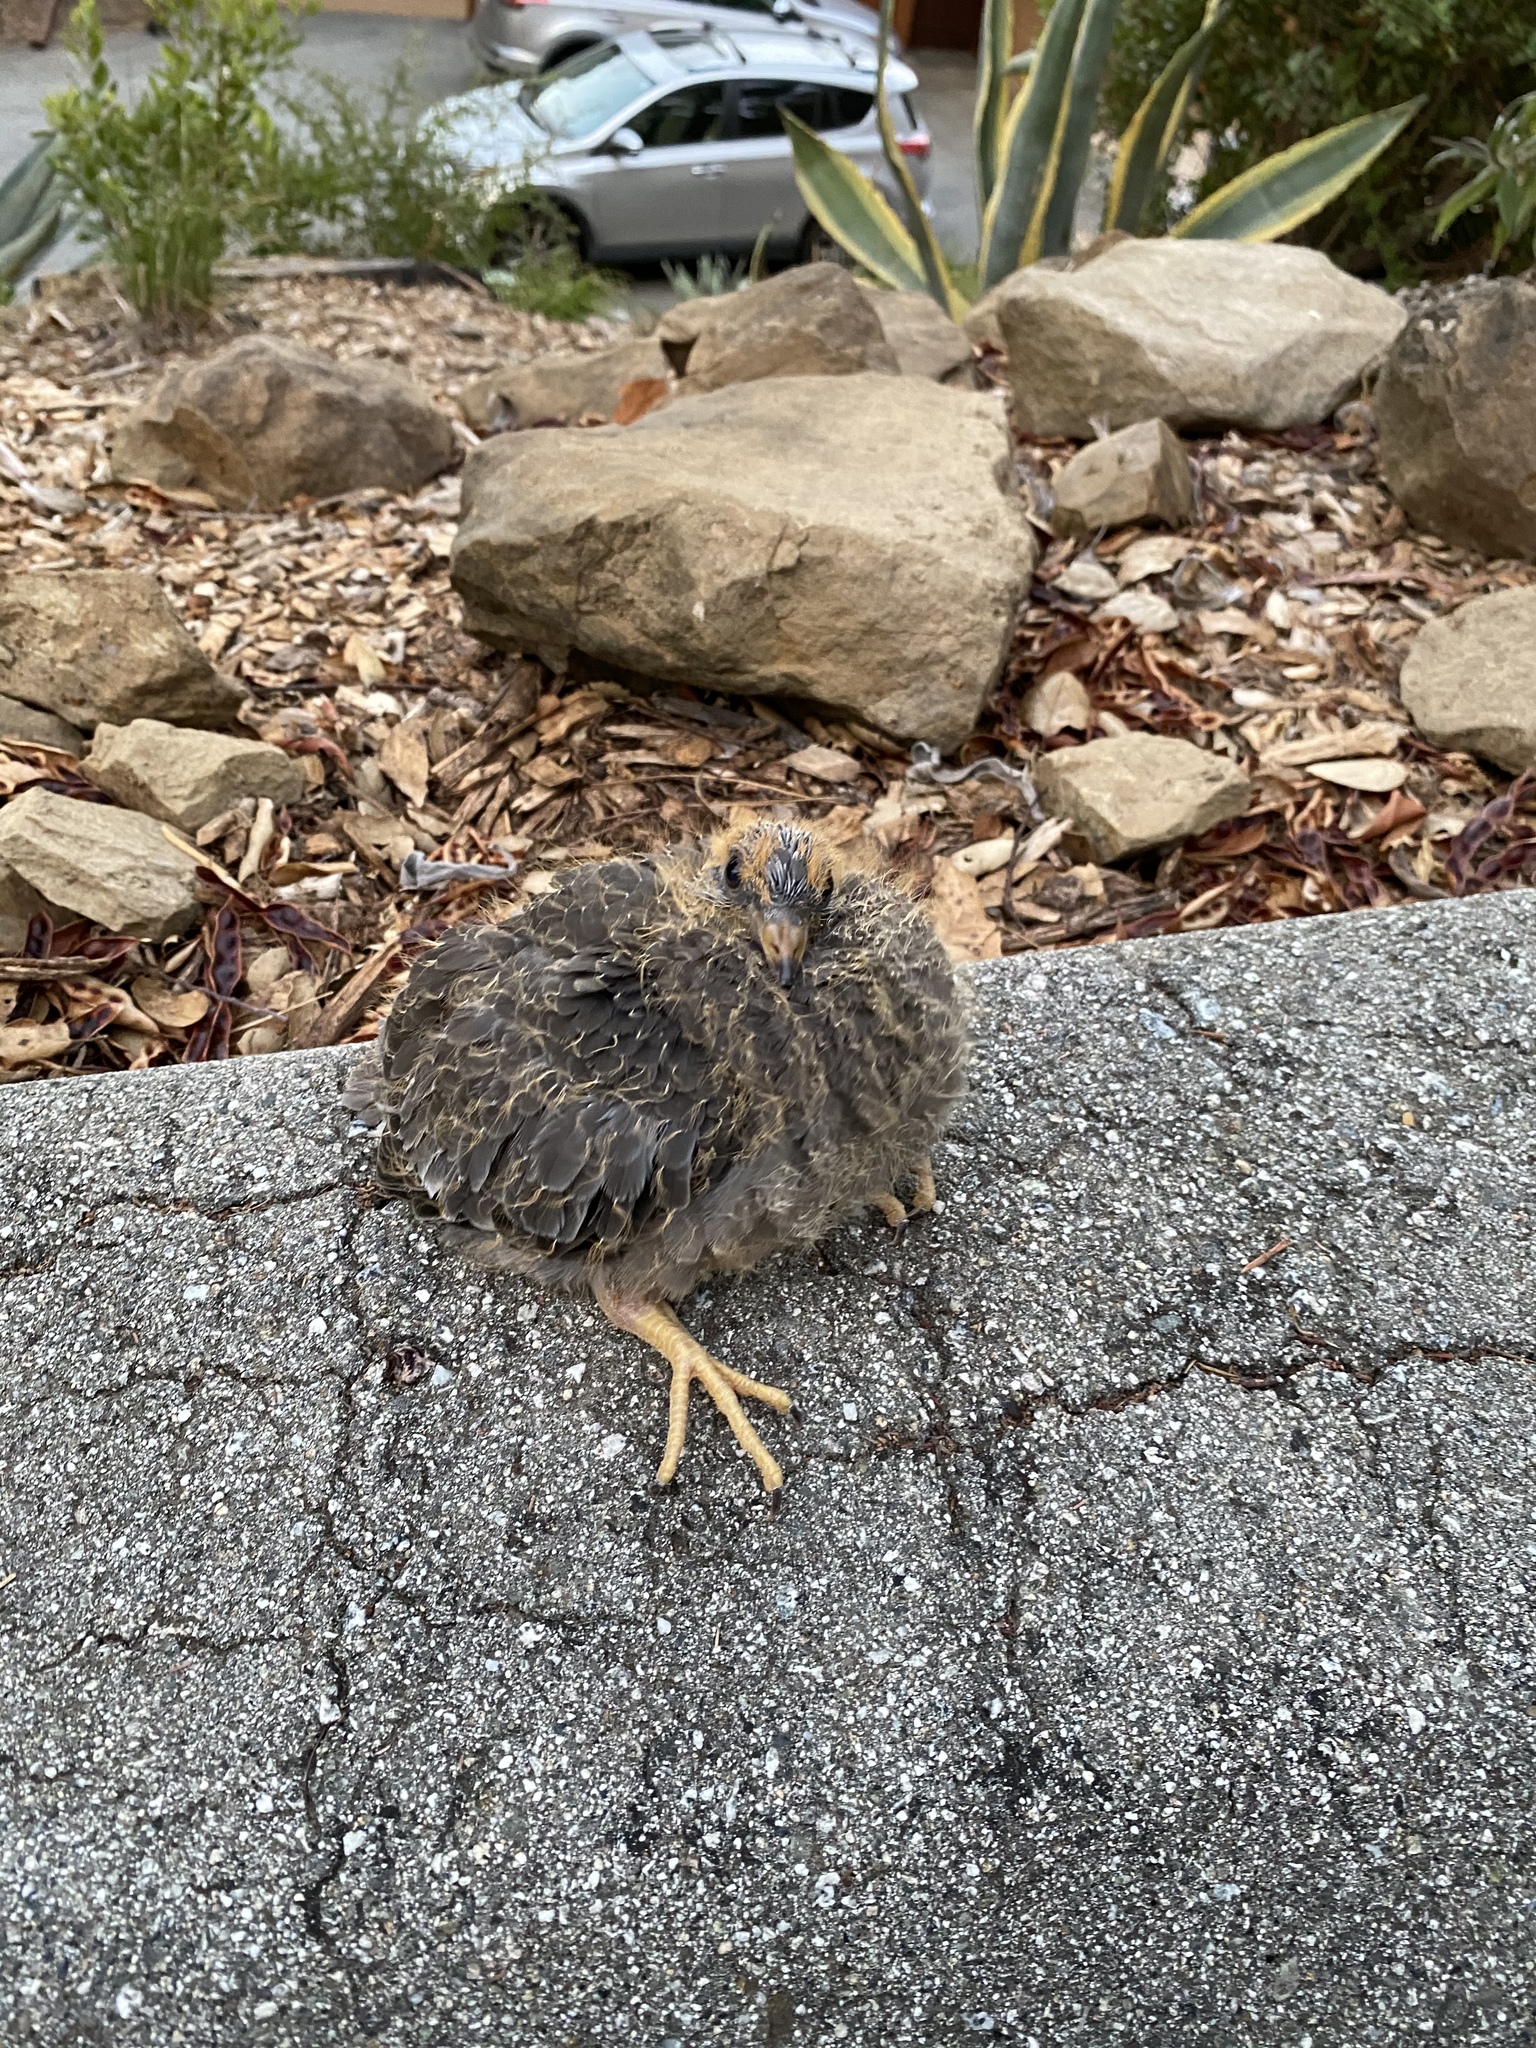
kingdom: Animalia
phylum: Chordata
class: Aves
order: Columbiformes
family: Columbidae
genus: Patagioenas
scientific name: Patagioenas fasciata
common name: Band-tailed pigeon
